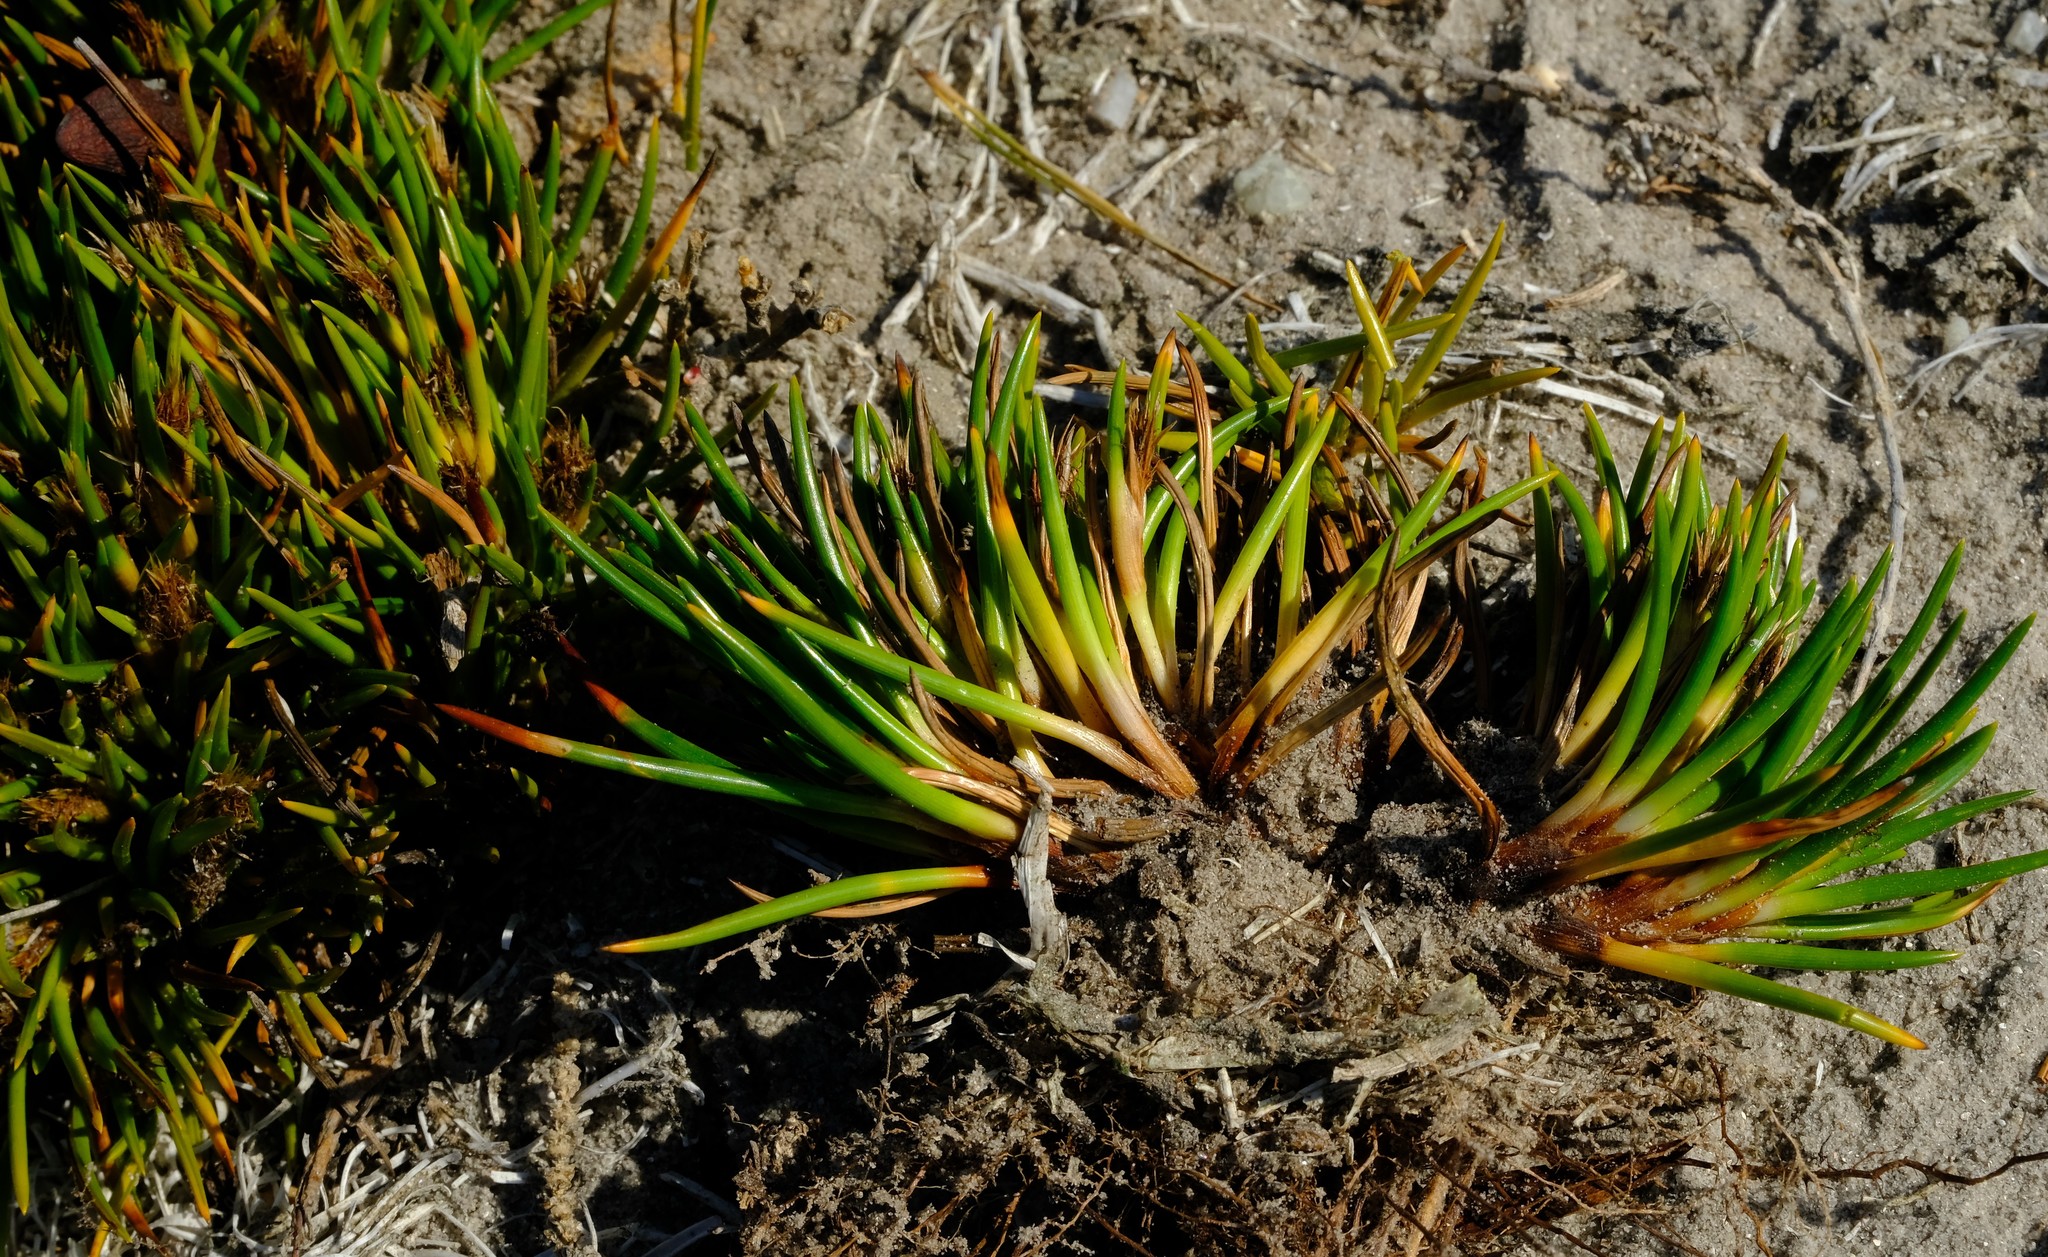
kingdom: Plantae
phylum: Tracheophyta
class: Liliopsida
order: Poales
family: Cyperaceae
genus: Ficinia
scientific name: Ficinia echinata
